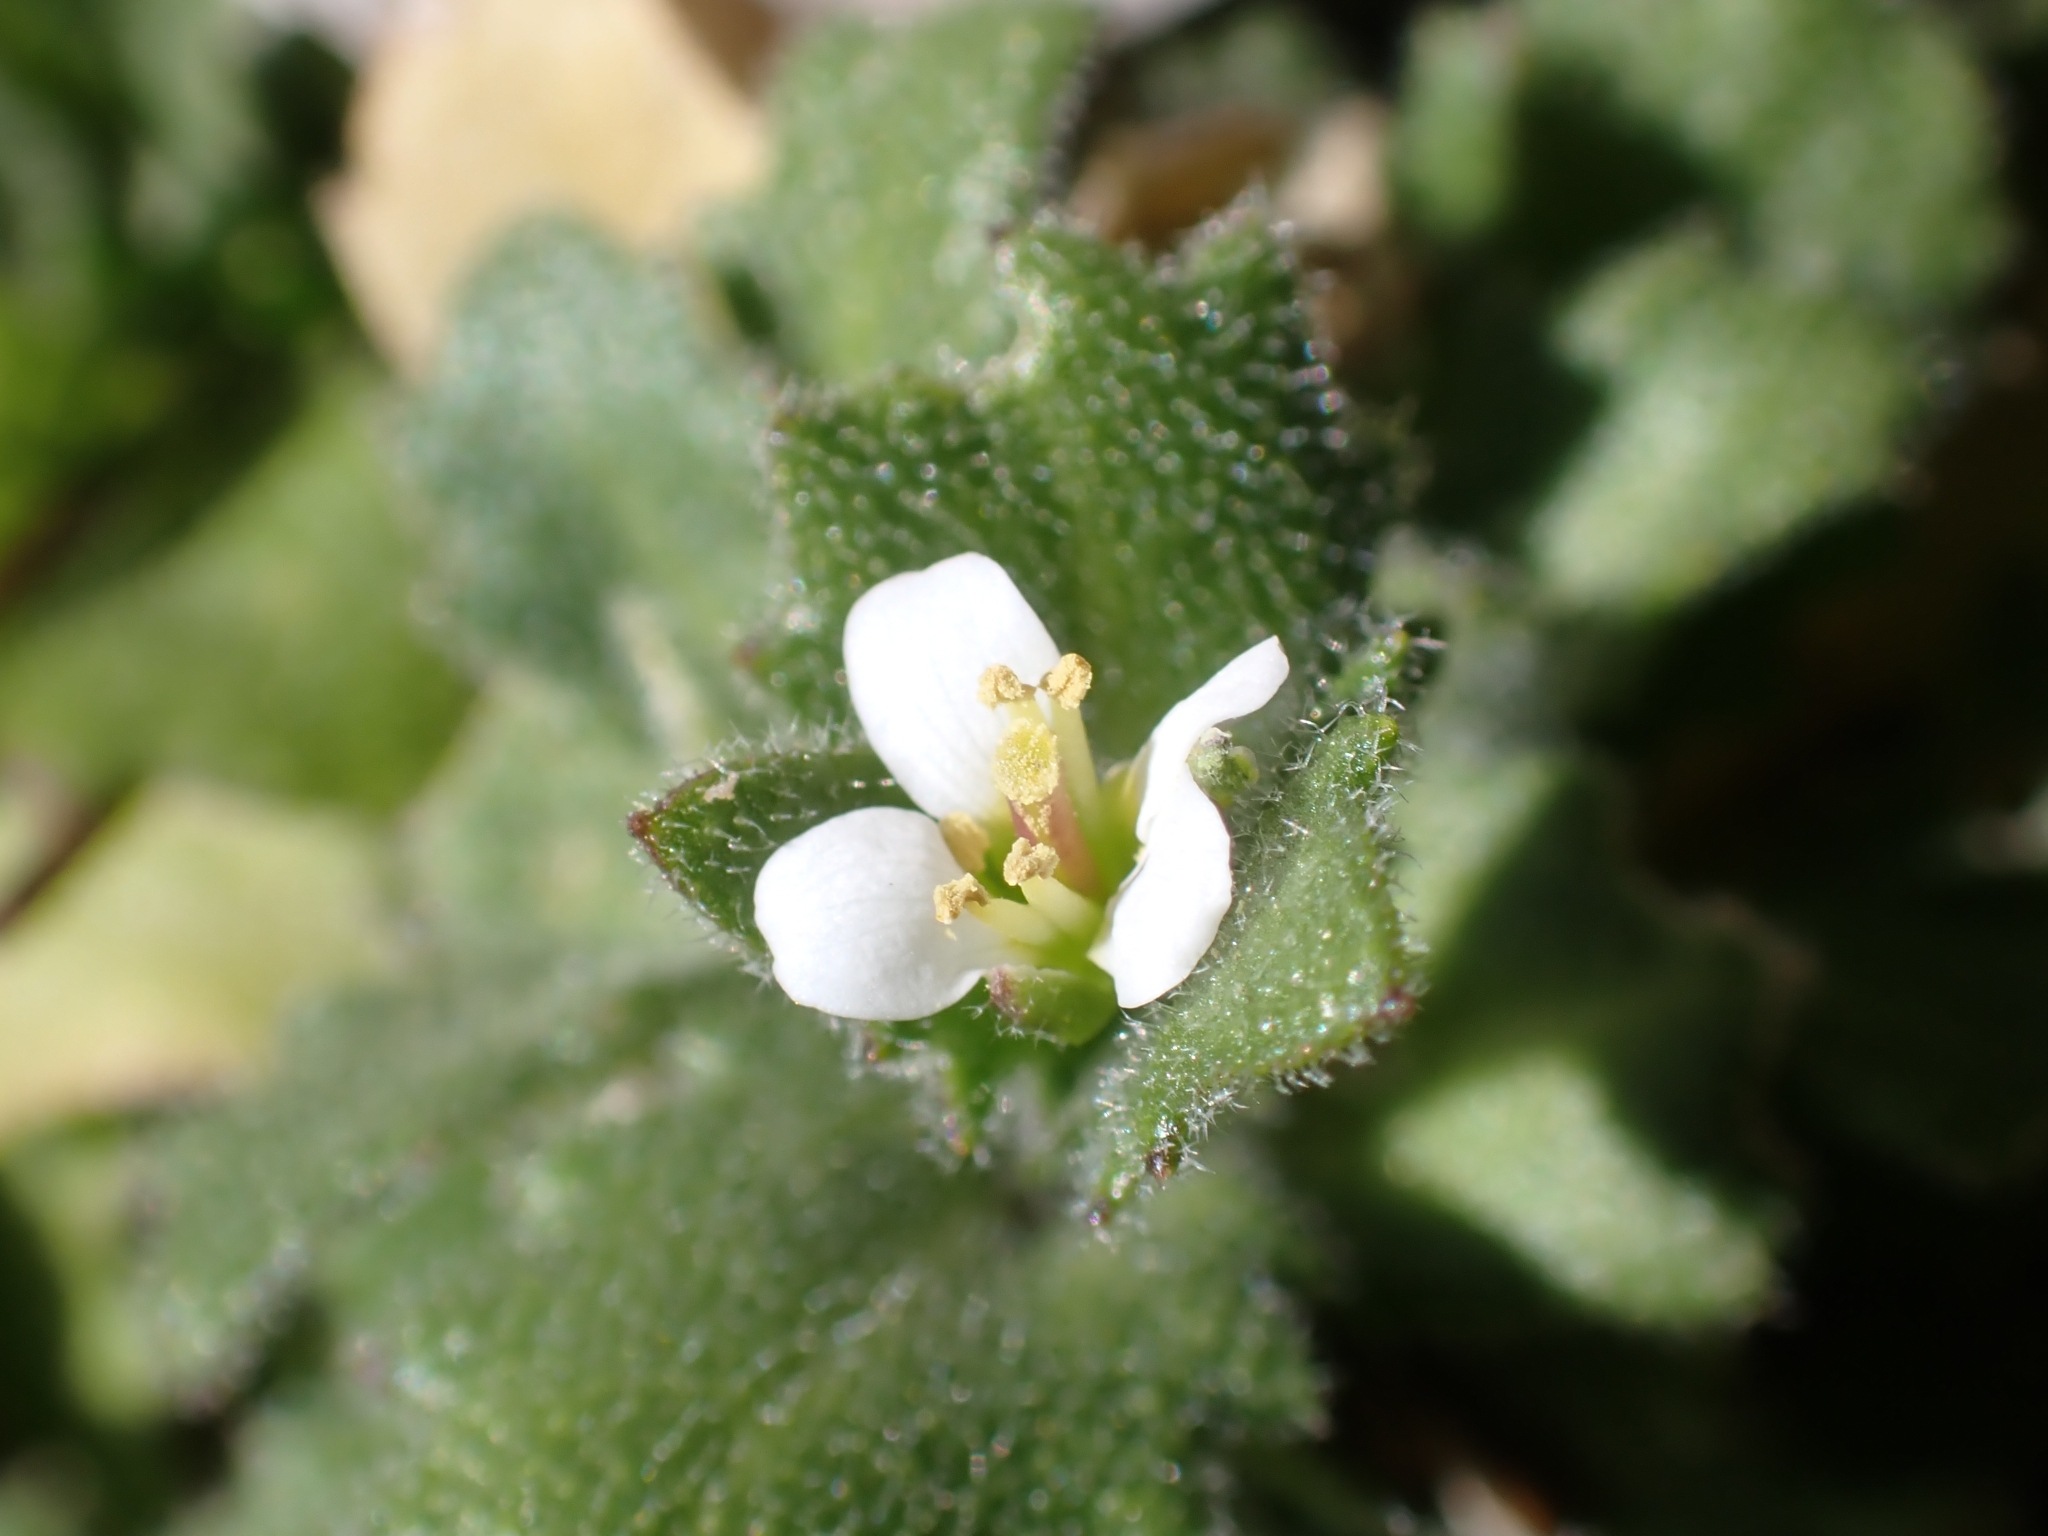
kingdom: Plantae
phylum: Tracheophyta
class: Magnoliopsida
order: Brassicales
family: Brassicaceae
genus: Arabis
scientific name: Arabis alpina
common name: Alpine rock-cress
